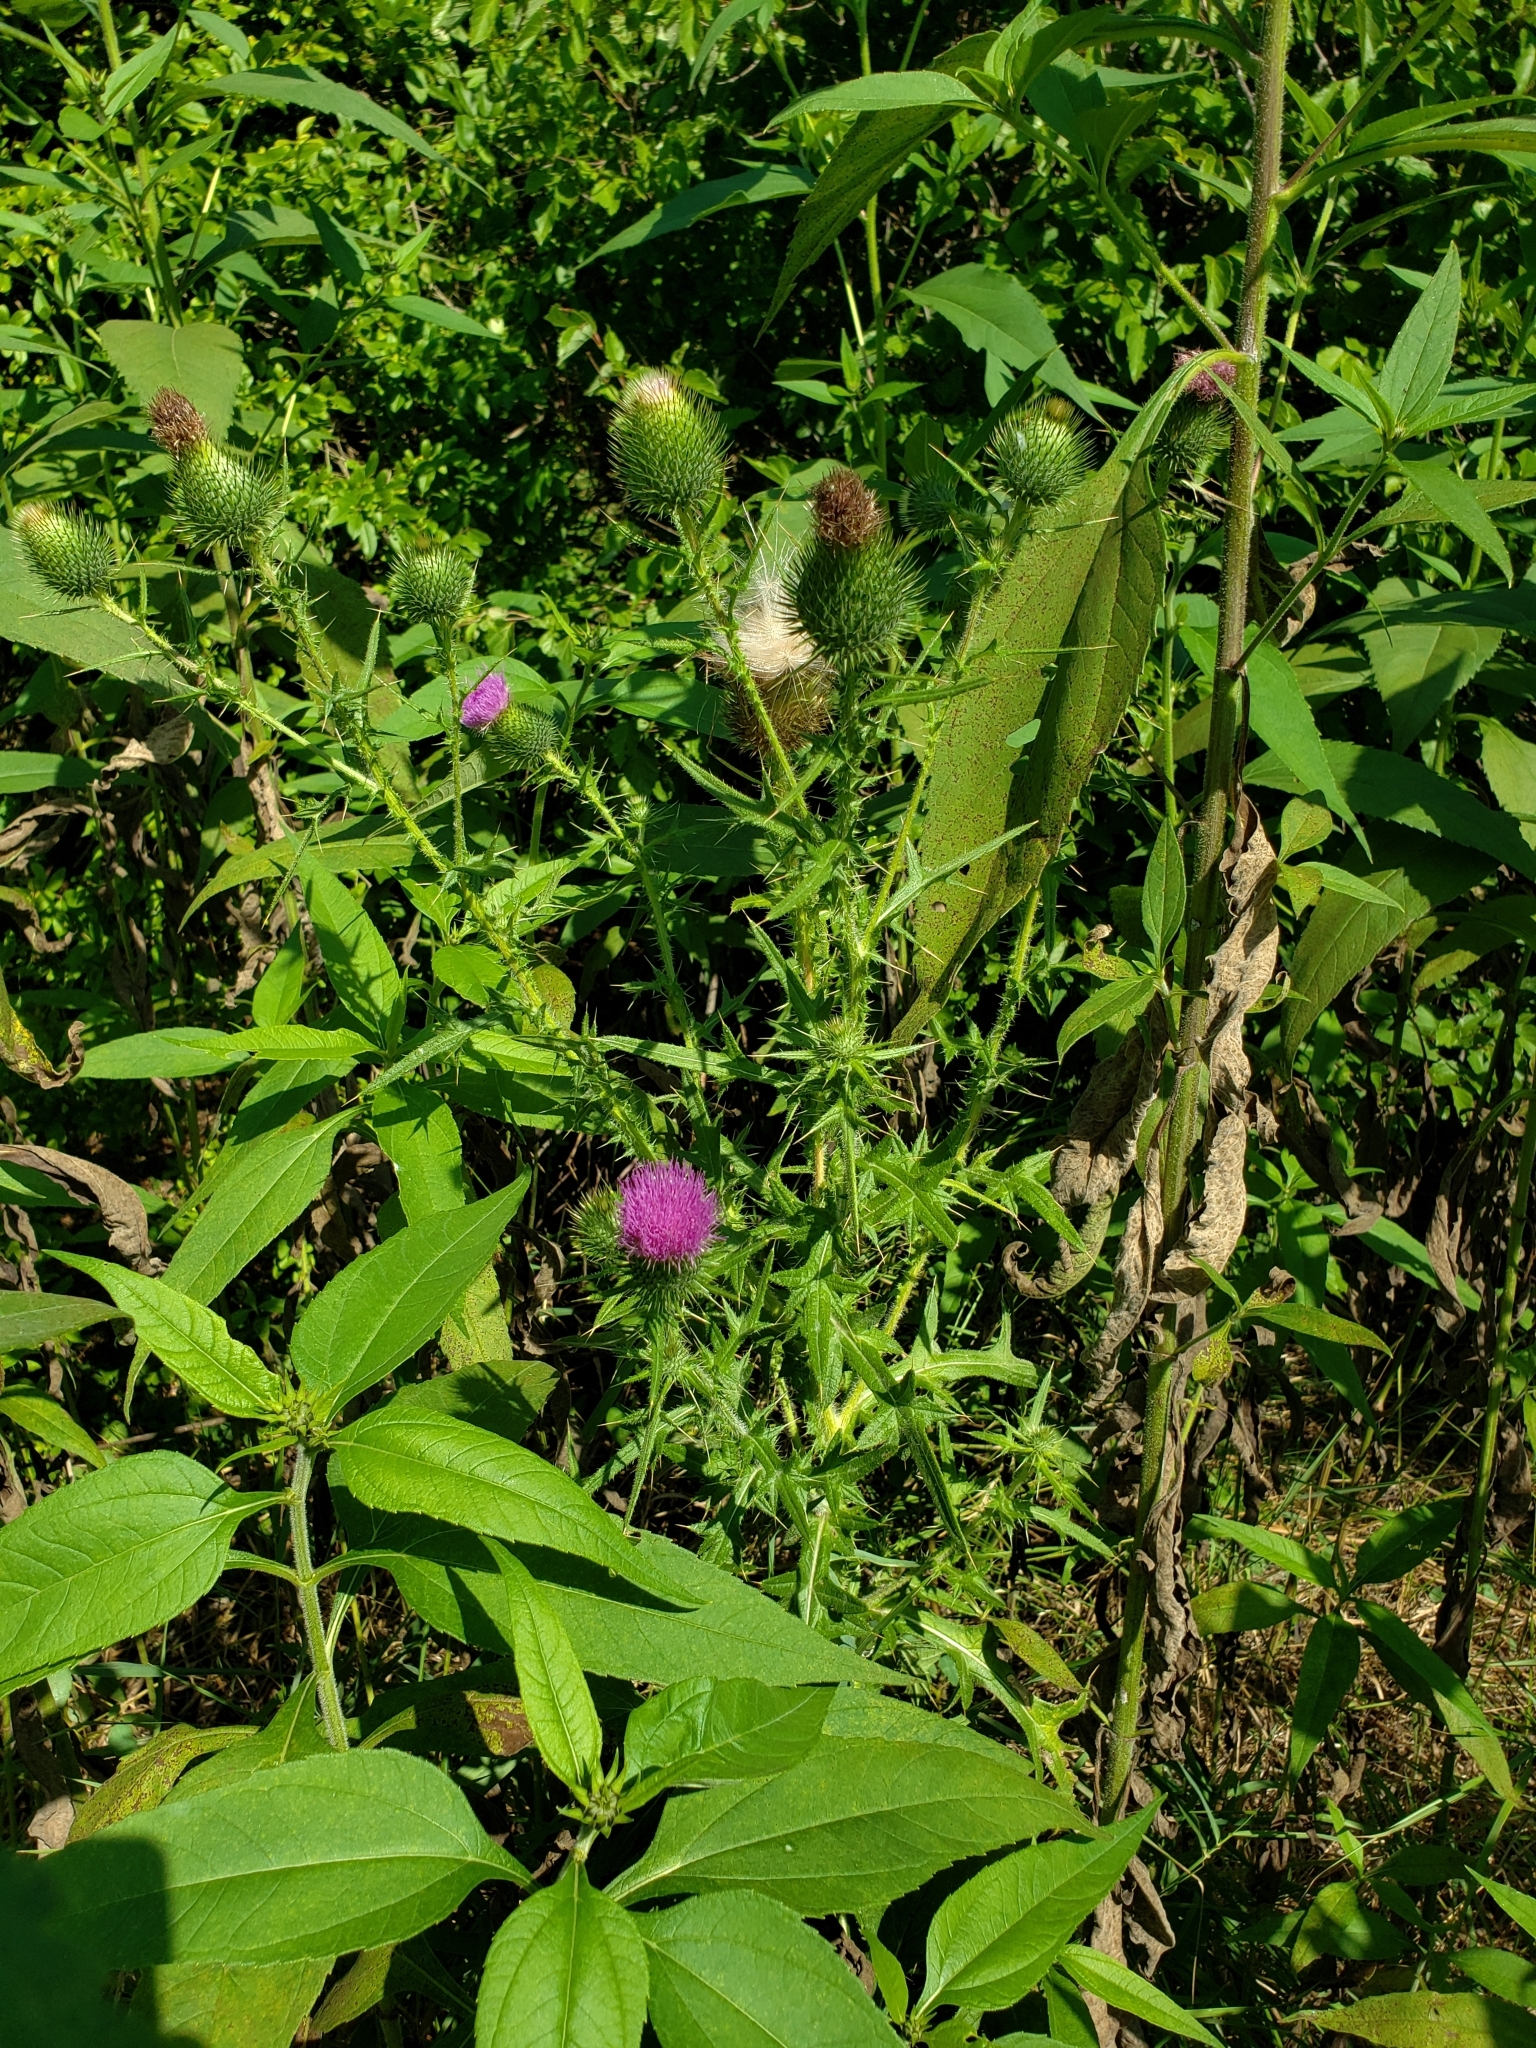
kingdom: Plantae
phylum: Tracheophyta
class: Magnoliopsida
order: Asterales
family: Asteraceae
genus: Cirsium
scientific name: Cirsium vulgare
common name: Bull thistle
